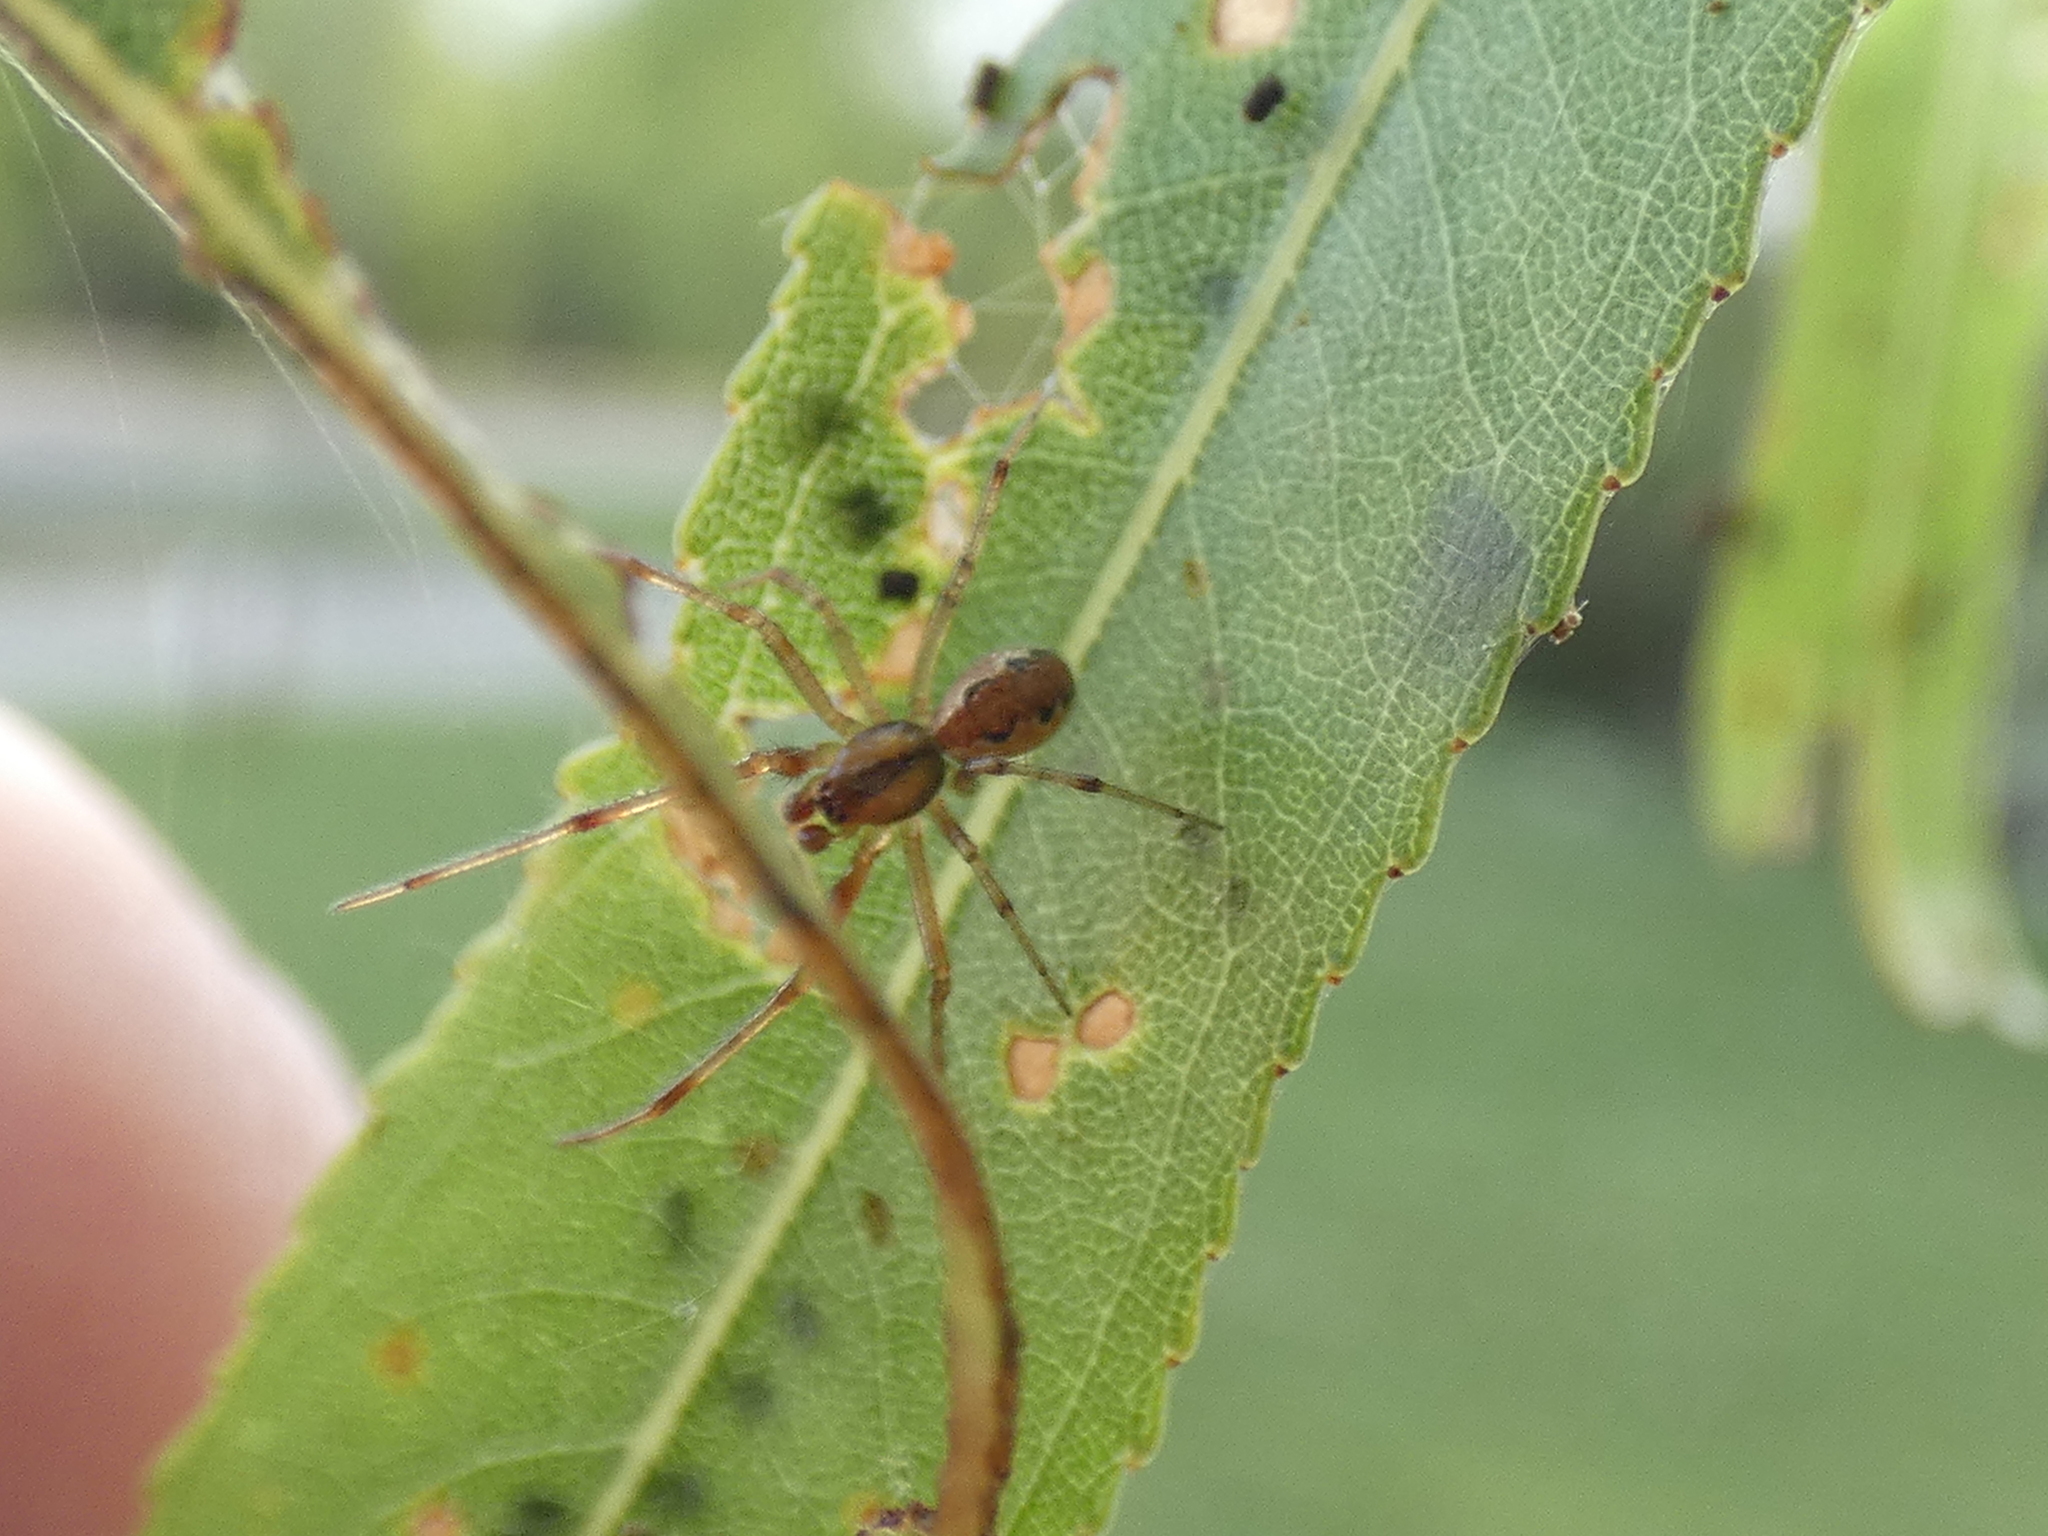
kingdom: Animalia
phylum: Arthropoda
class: Arachnida
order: Araneae
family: Theridiidae
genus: Anelosimus
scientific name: Anelosimus studiosus
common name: Cobweb spiders
